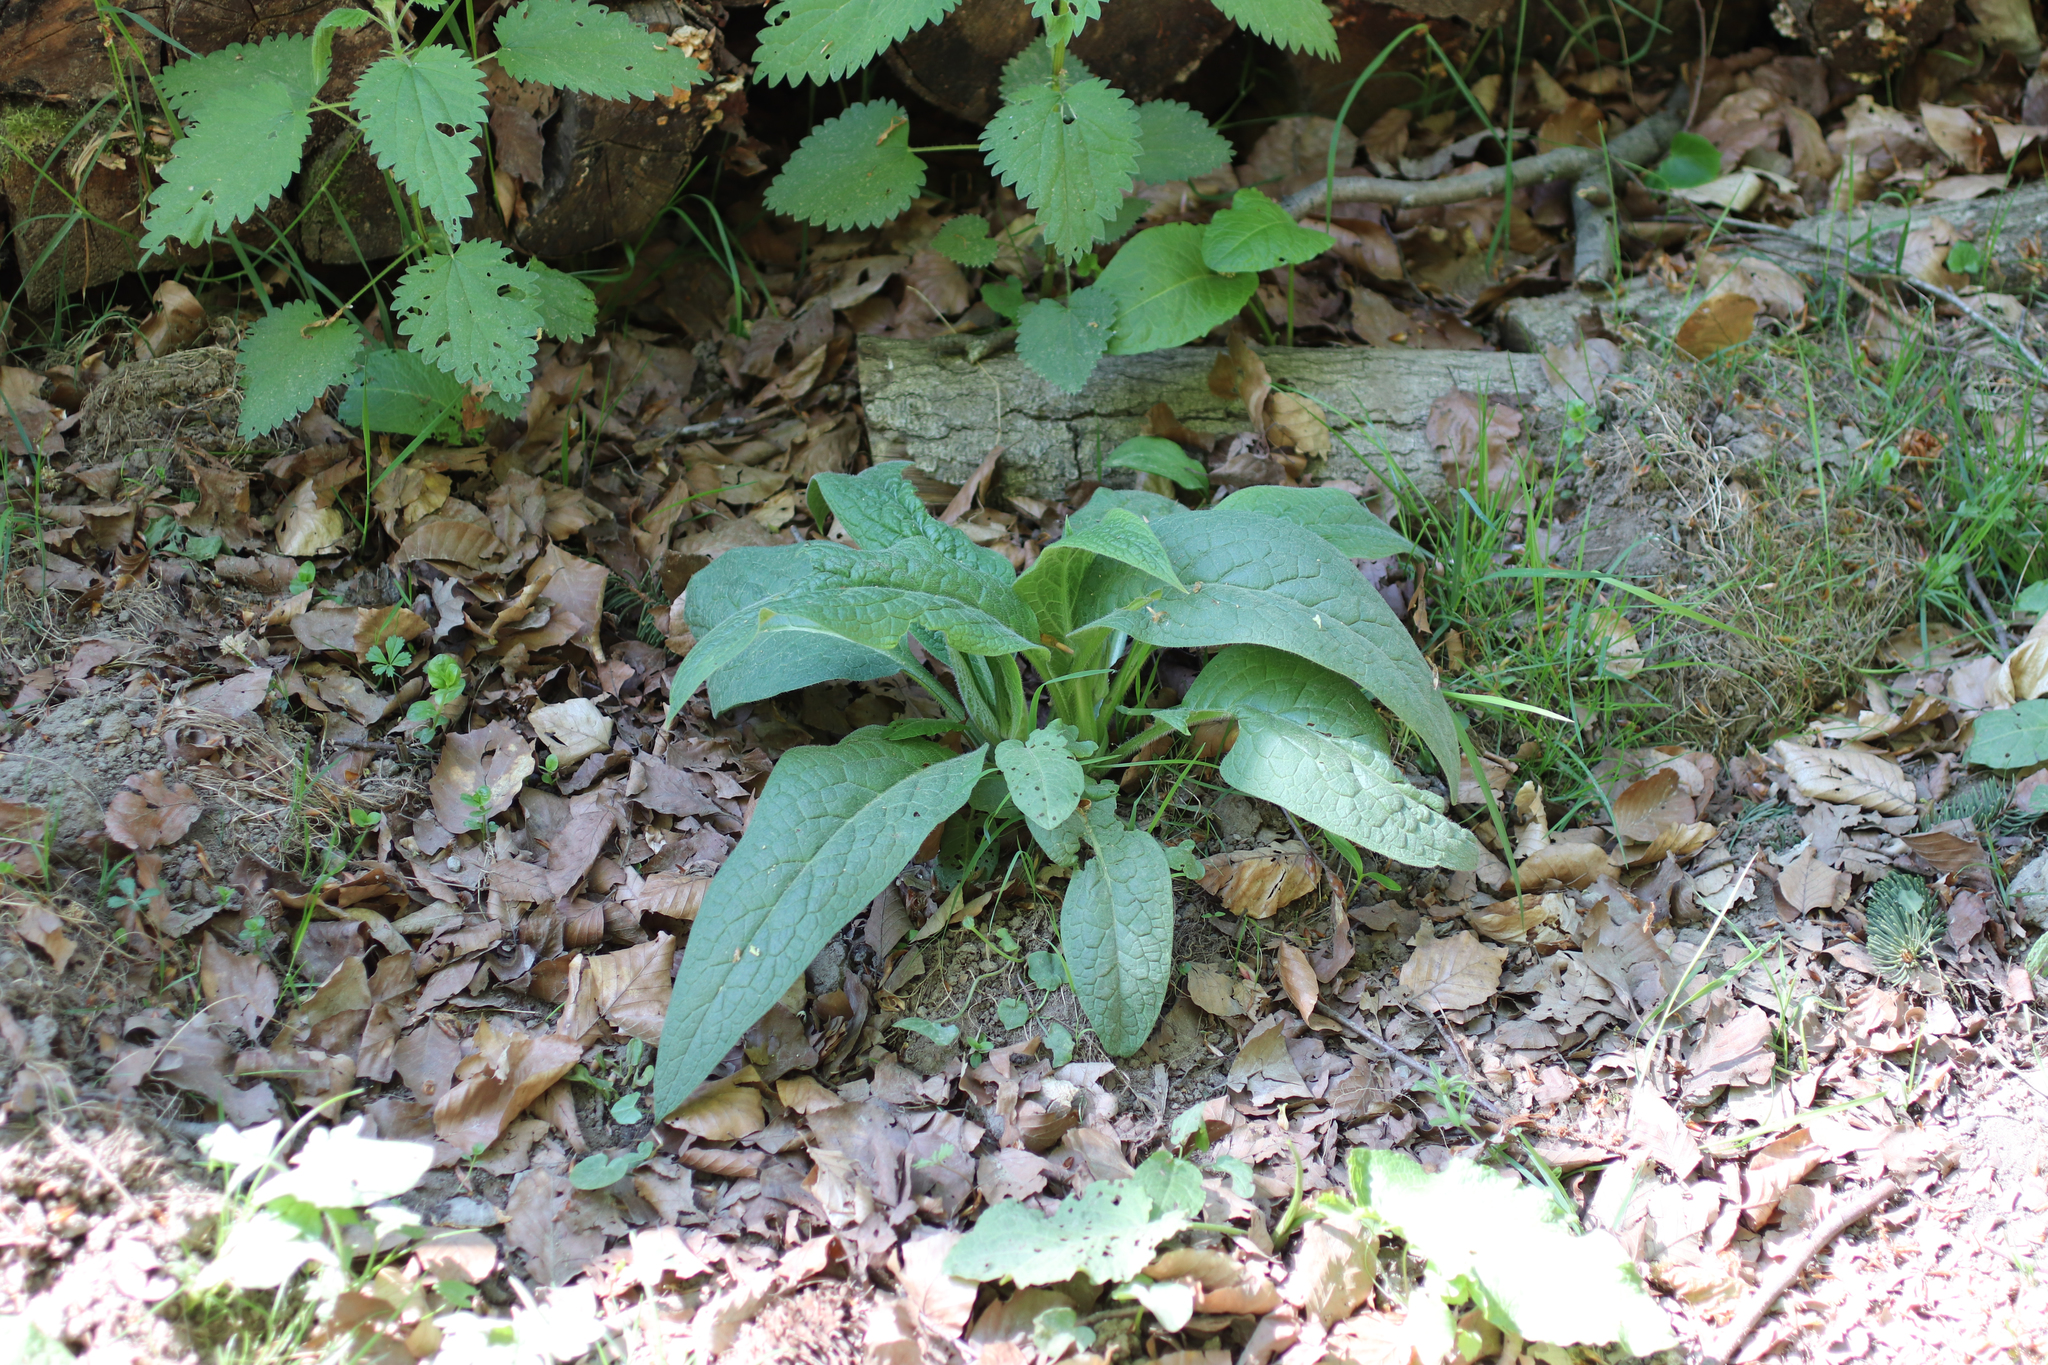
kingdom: Plantae
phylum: Tracheophyta
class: Magnoliopsida
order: Boraginales
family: Boraginaceae
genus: Symphytum
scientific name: Symphytum officinale
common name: Common comfrey
